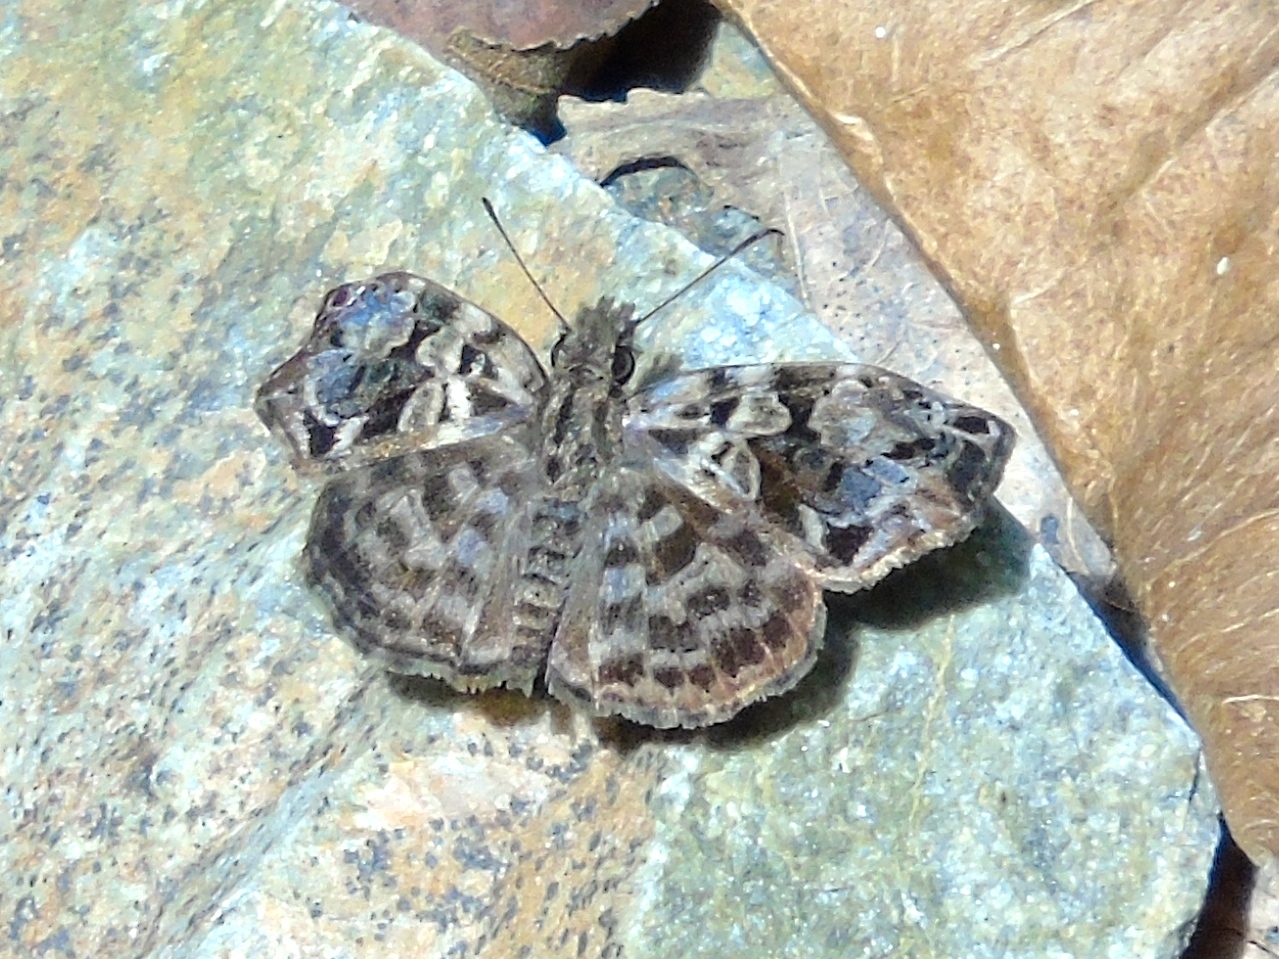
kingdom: Animalia
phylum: Arthropoda
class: Insecta
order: Lepidoptera
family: Hesperiidae
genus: Gorgythion
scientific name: Gorgythion begga
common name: Variegated skipper
